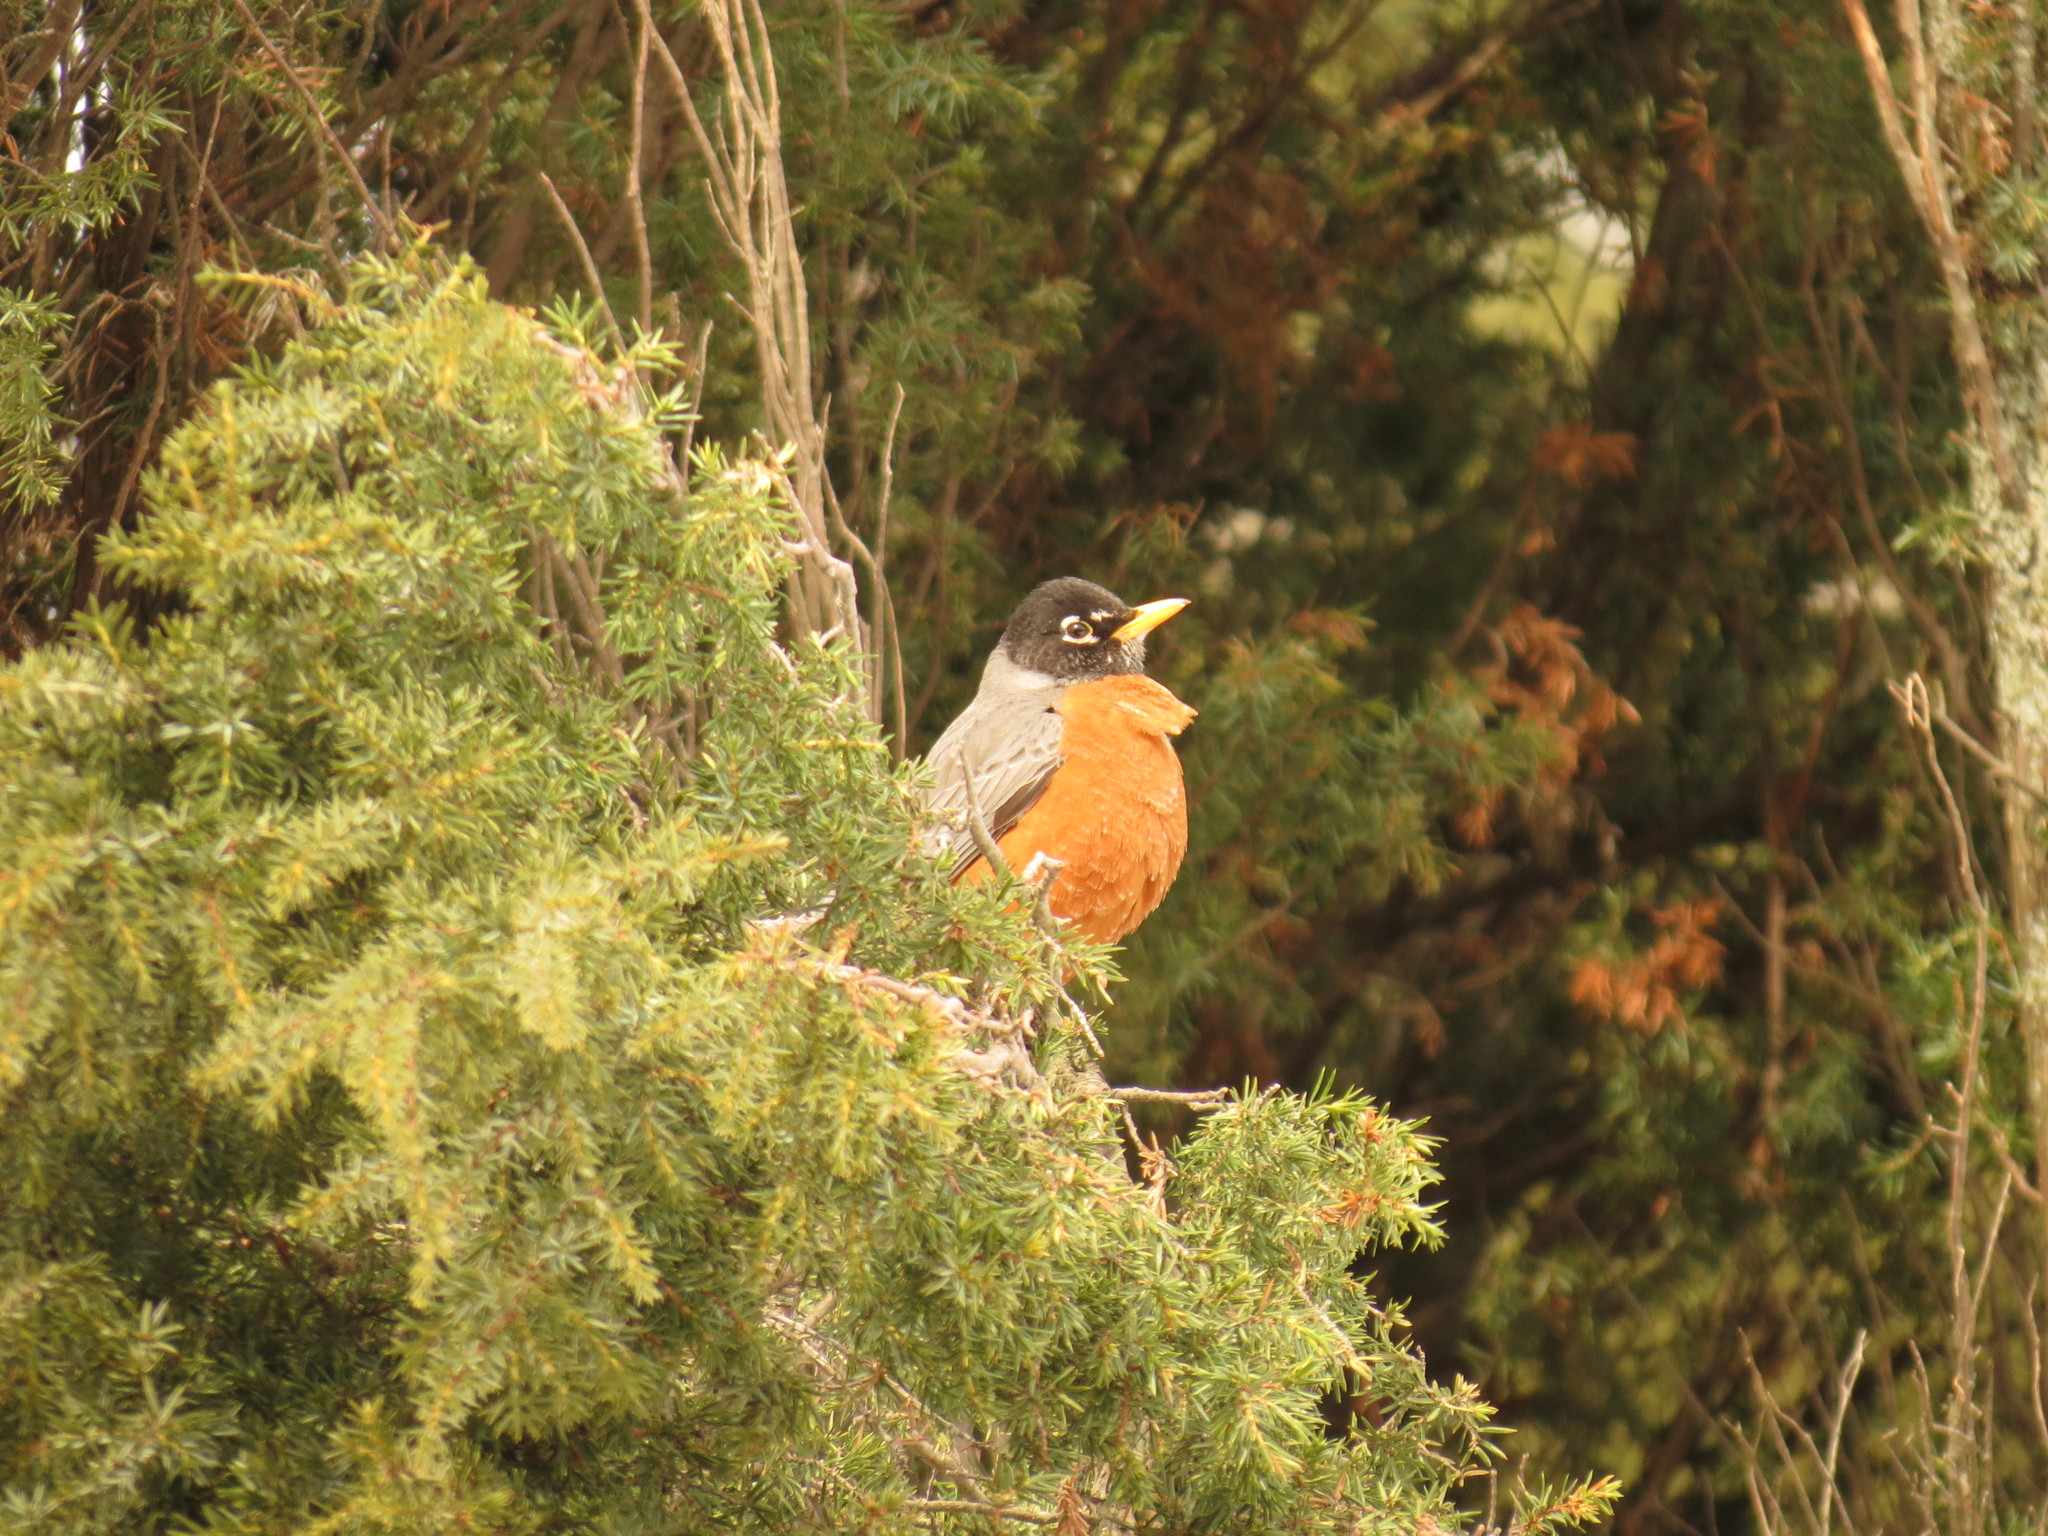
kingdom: Animalia
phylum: Chordata
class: Aves
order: Passeriformes
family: Turdidae
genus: Turdus
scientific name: Turdus migratorius
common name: American robin
